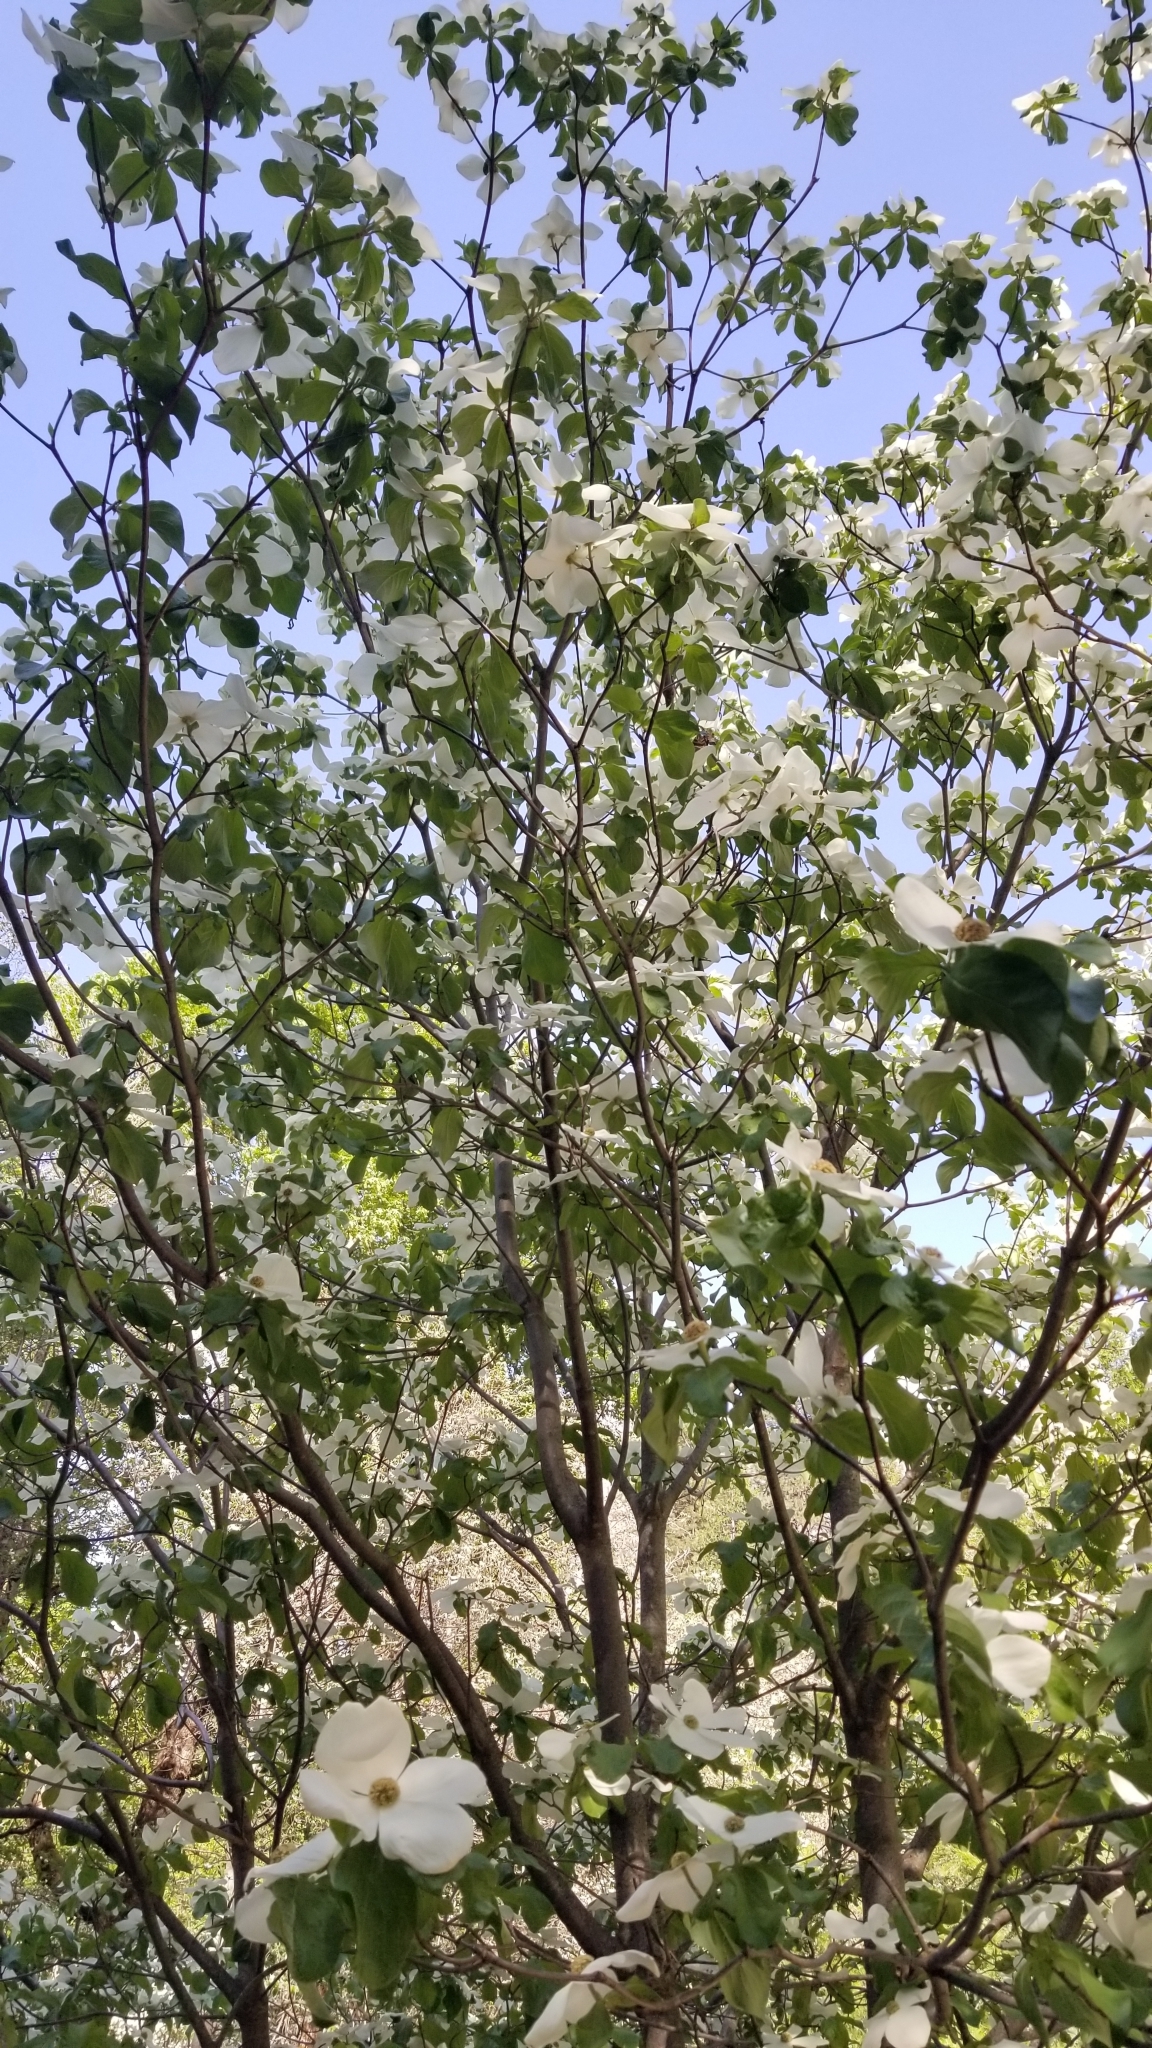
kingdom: Plantae
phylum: Tracheophyta
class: Magnoliopsida
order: Cornales
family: Cornaceae
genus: Cornus
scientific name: Cornus nuttallii
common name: Pacific dogwood
